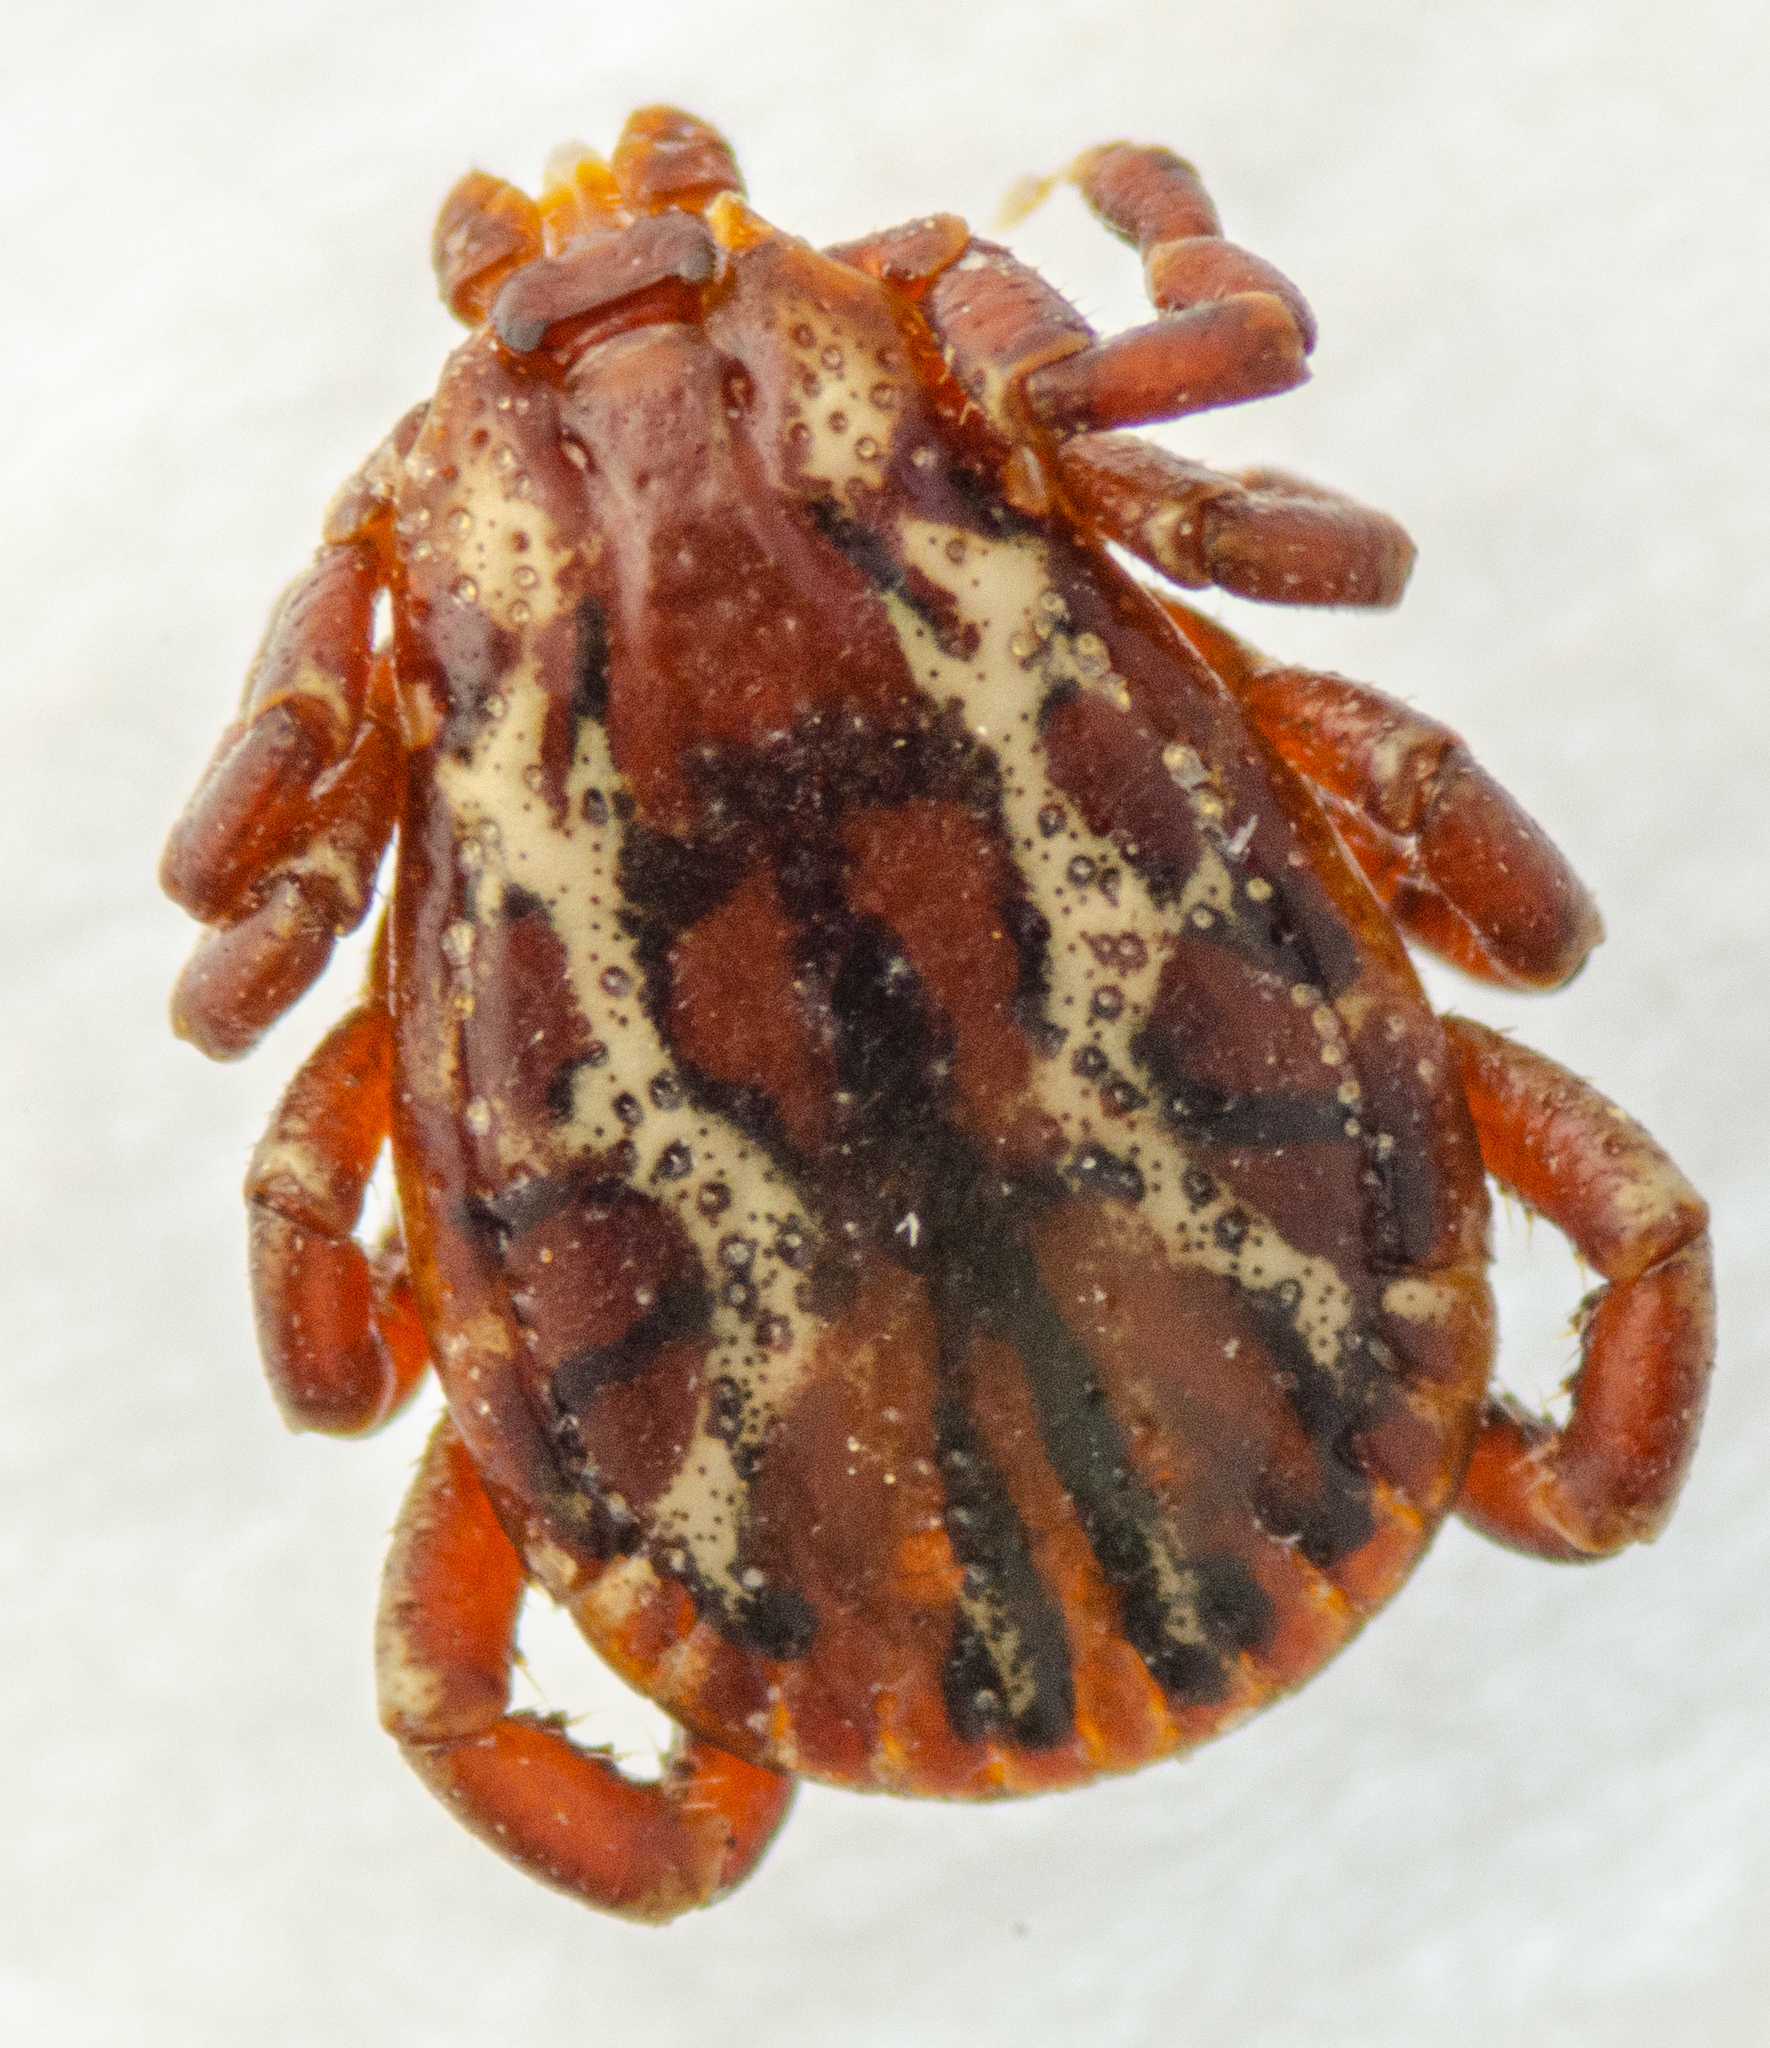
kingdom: Animalia
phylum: Arthropoda
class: Arachnida
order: Ixodida
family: Ixodidae
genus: Dermacentor
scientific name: Dermacentor variabilis
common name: American dog tick
